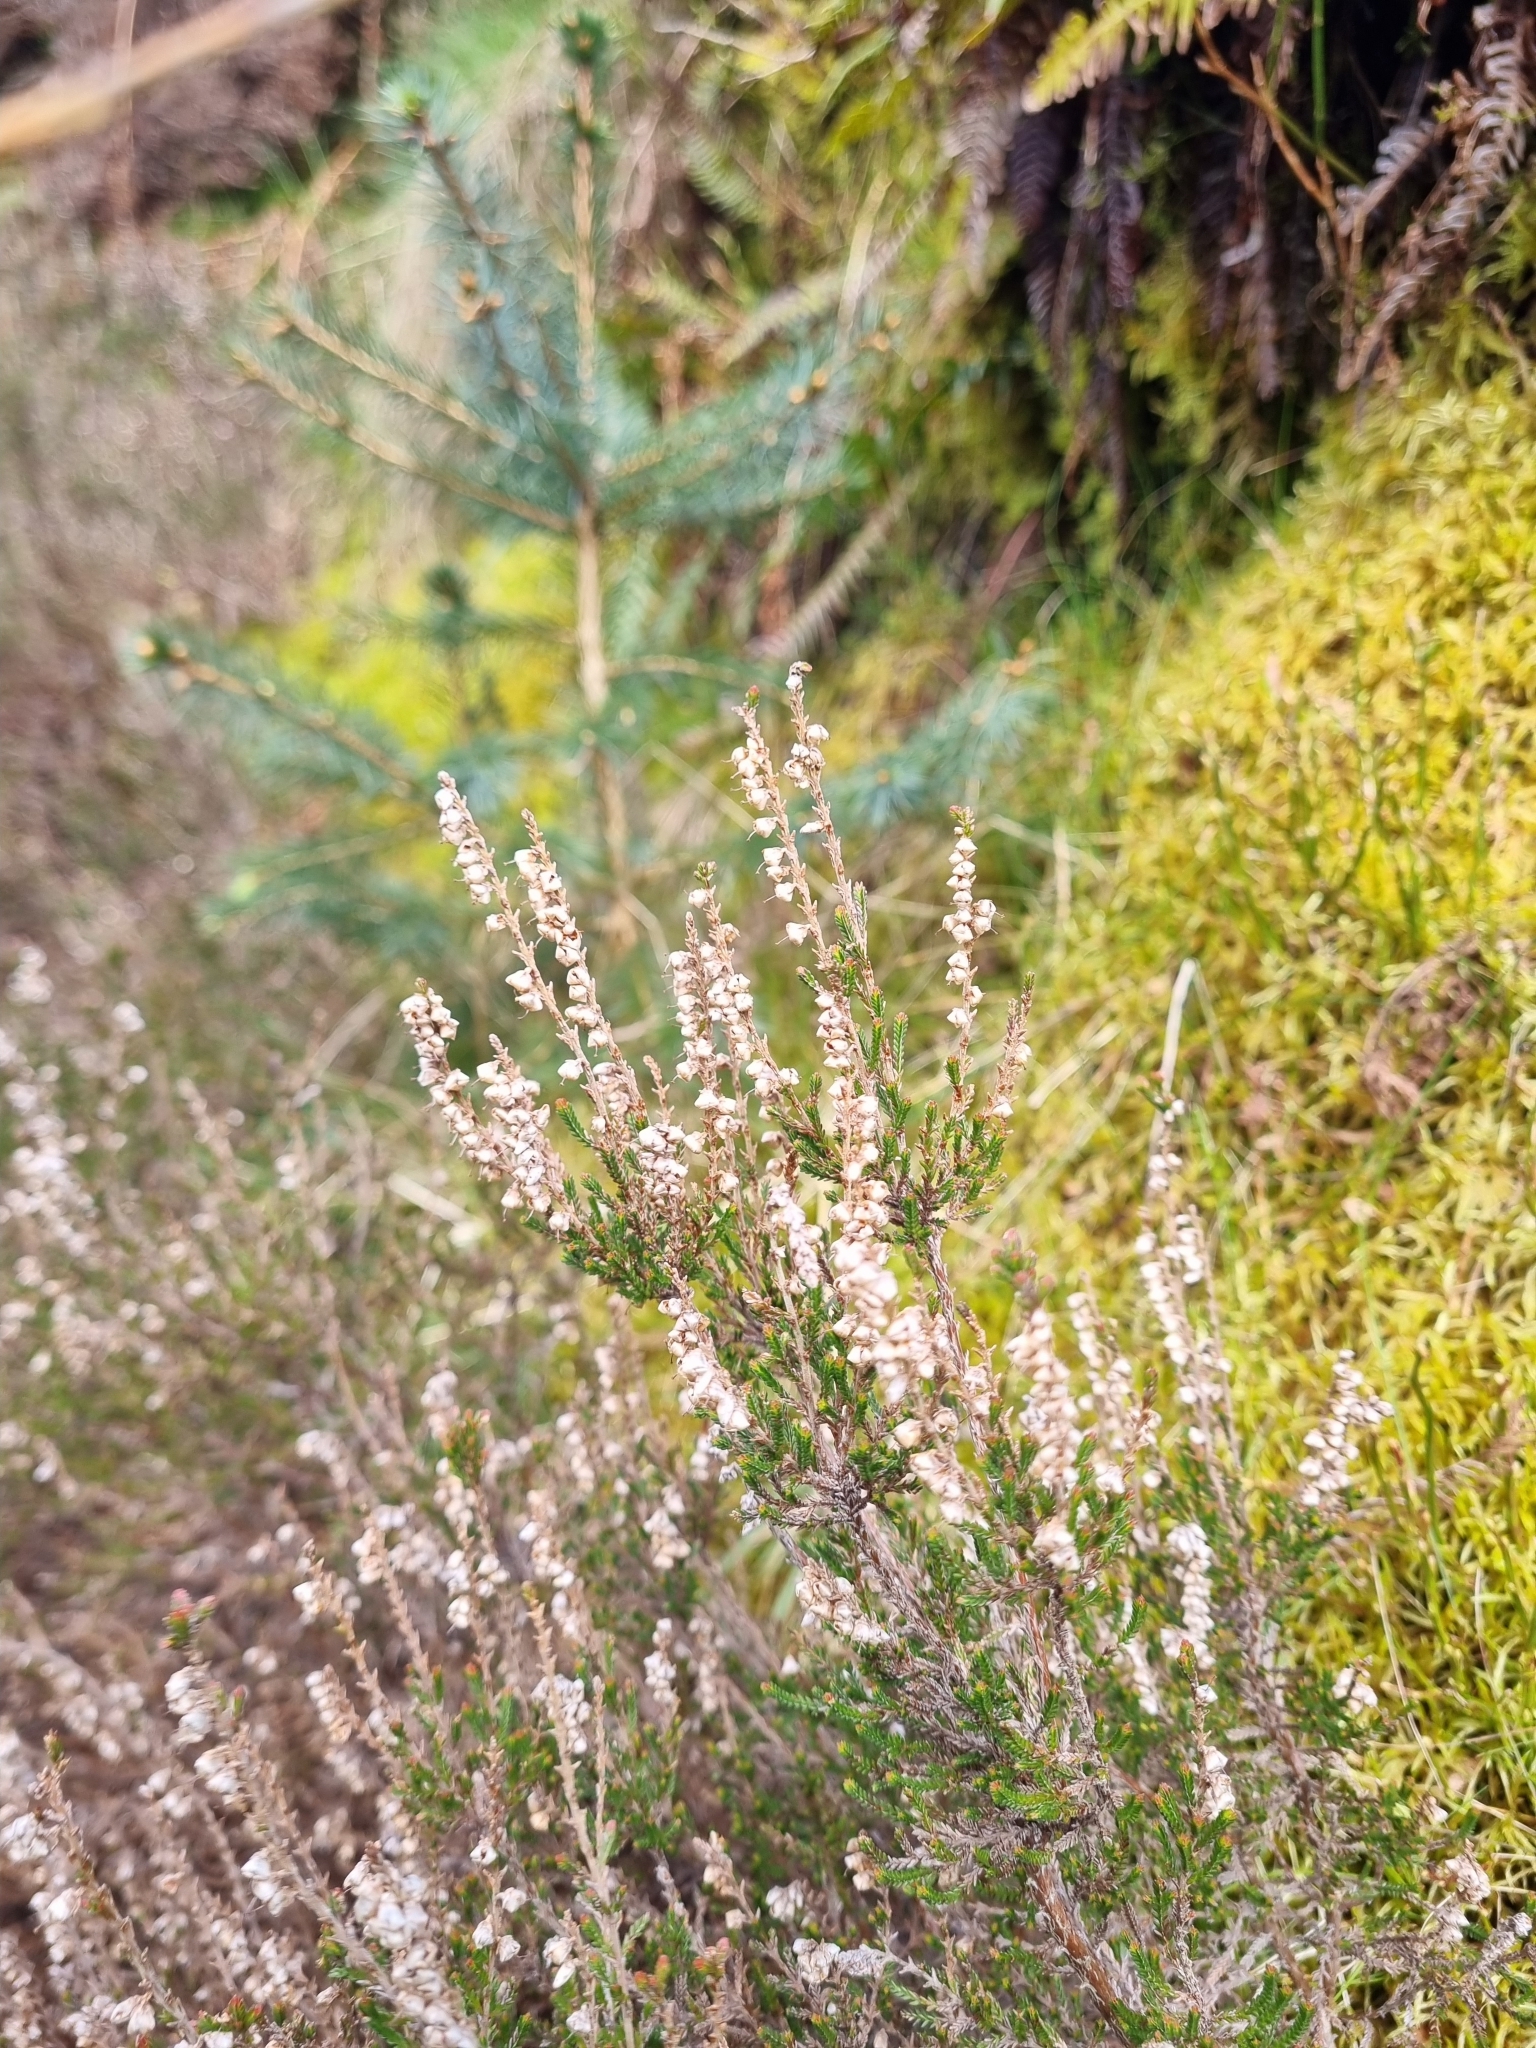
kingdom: Plantae
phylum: Tracheophyta
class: Magnoliopsida
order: Ericales
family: Ericaceae
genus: Calluna
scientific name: Calluna vulgaris
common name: Heather
